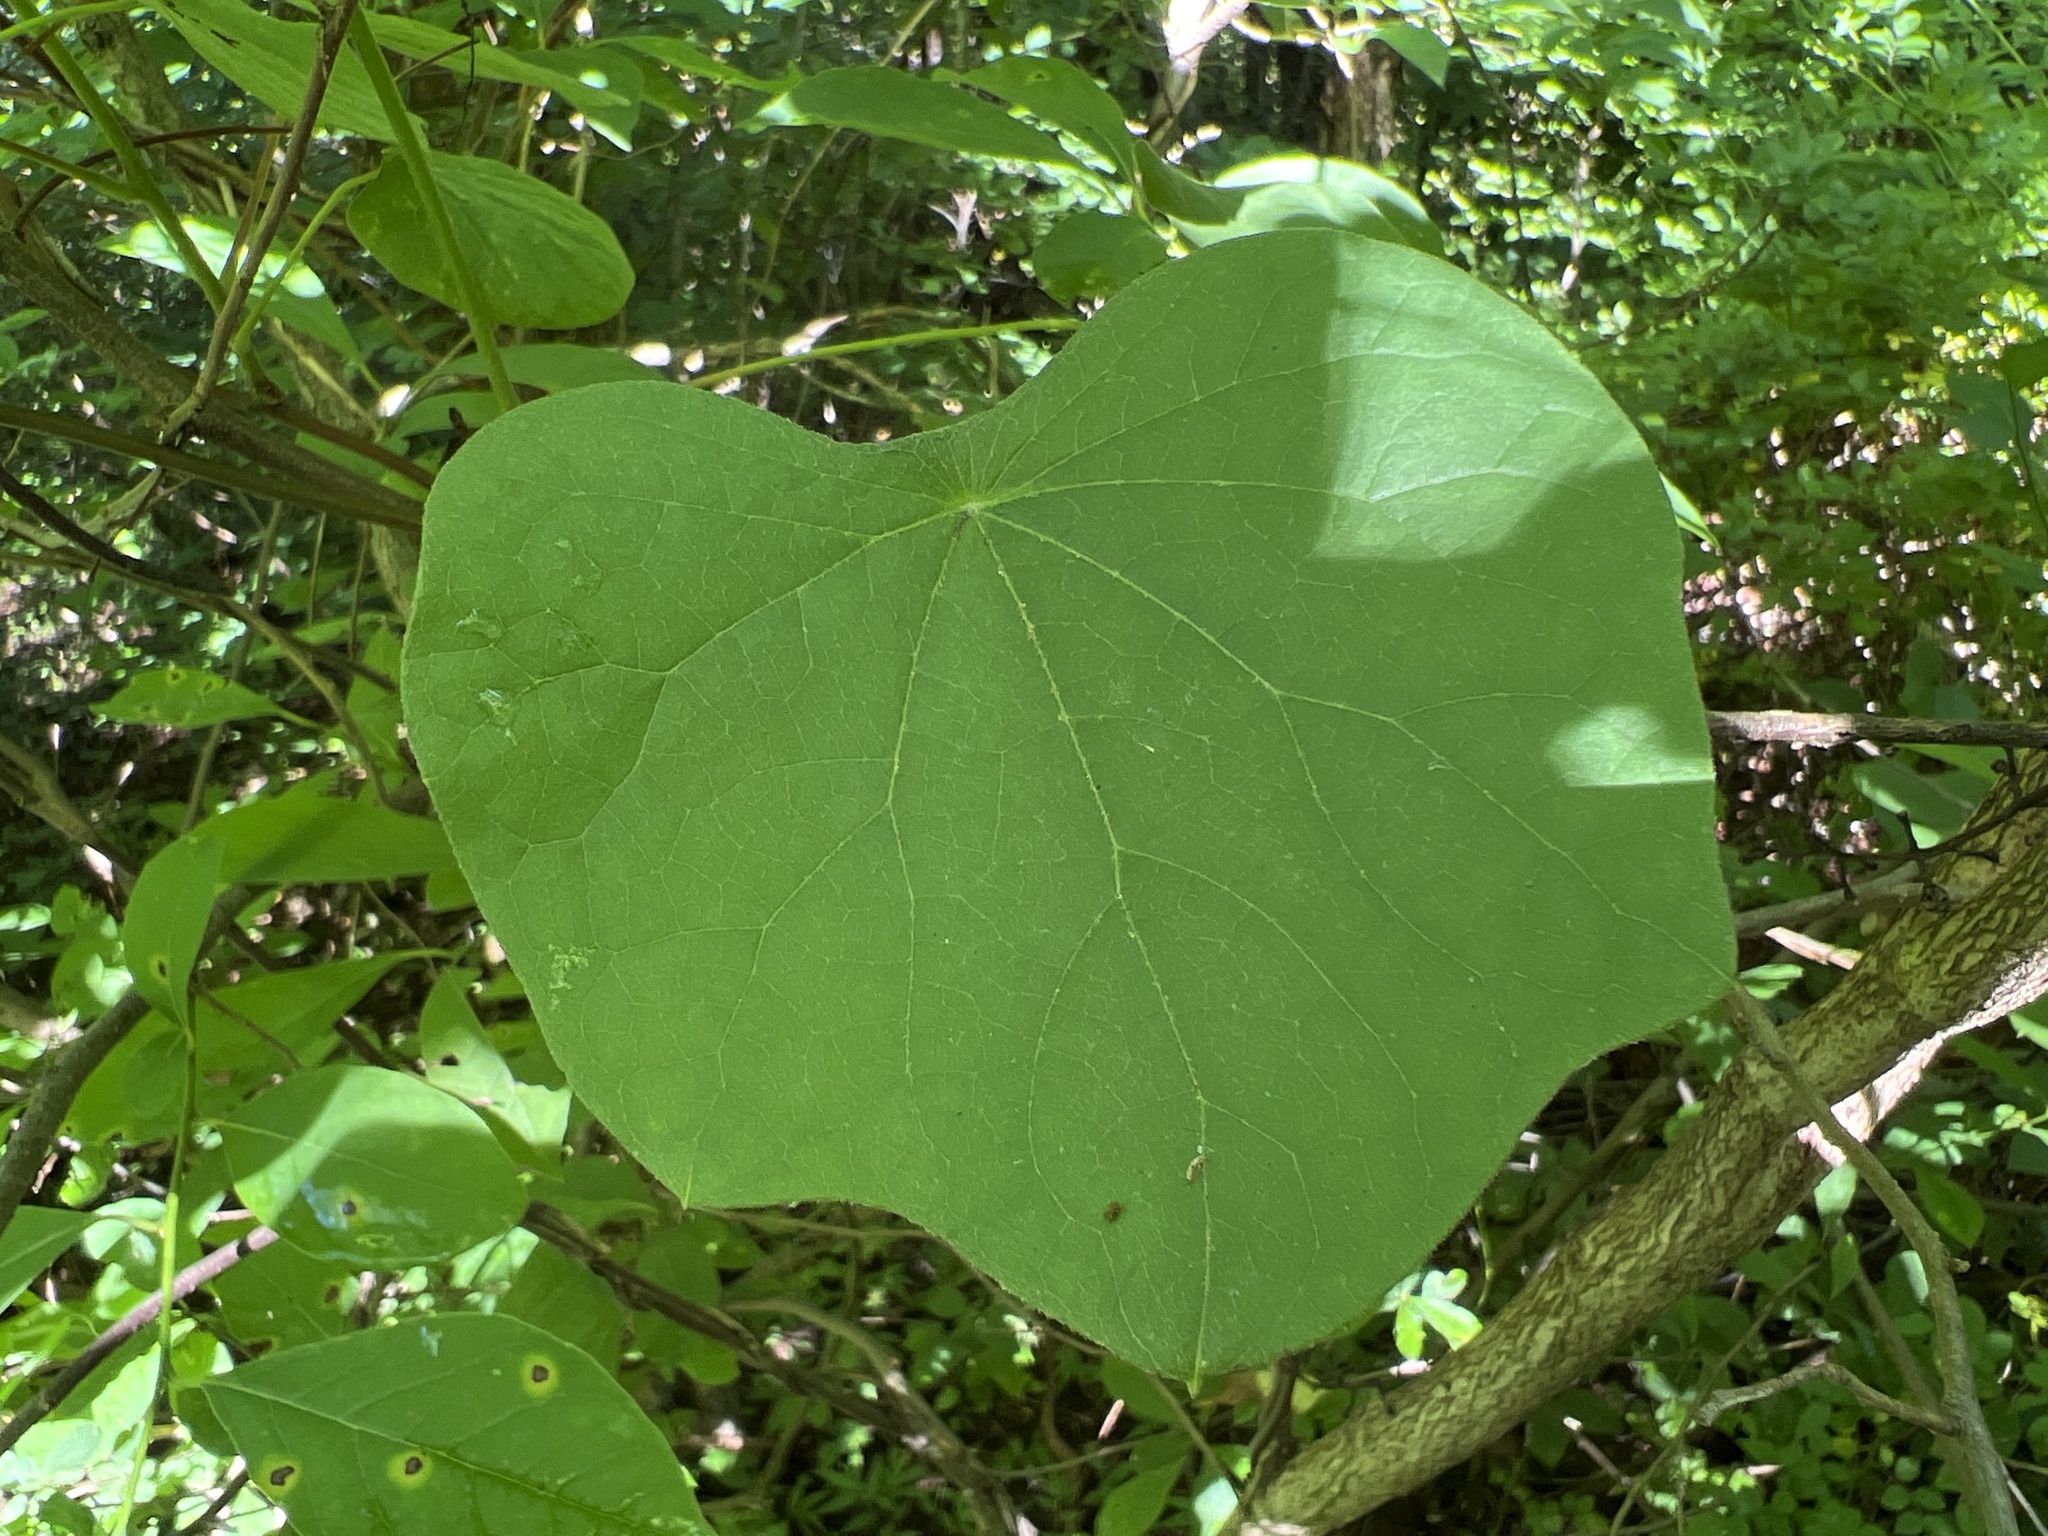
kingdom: Plantae
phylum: Tracheophyta
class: Magnoliopsida
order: Ranunculales
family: Menispermaceae
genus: Menispermum
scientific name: Menispermum canadense
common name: Moonseed
